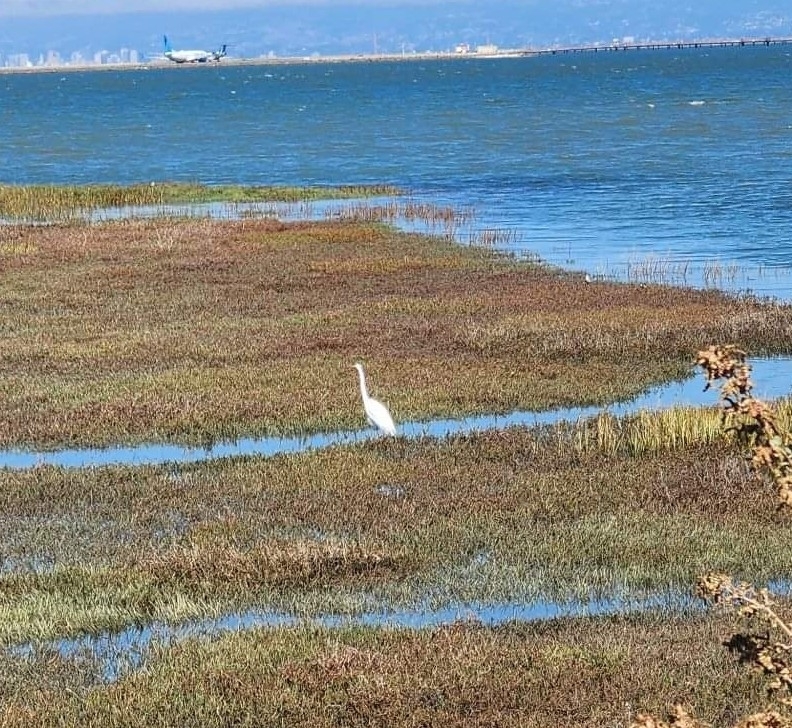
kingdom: Animalia
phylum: Chordata
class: Aves
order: Pelecaniformes
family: Ardeidae
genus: Ardea
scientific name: Ardea alba
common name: Great egret
